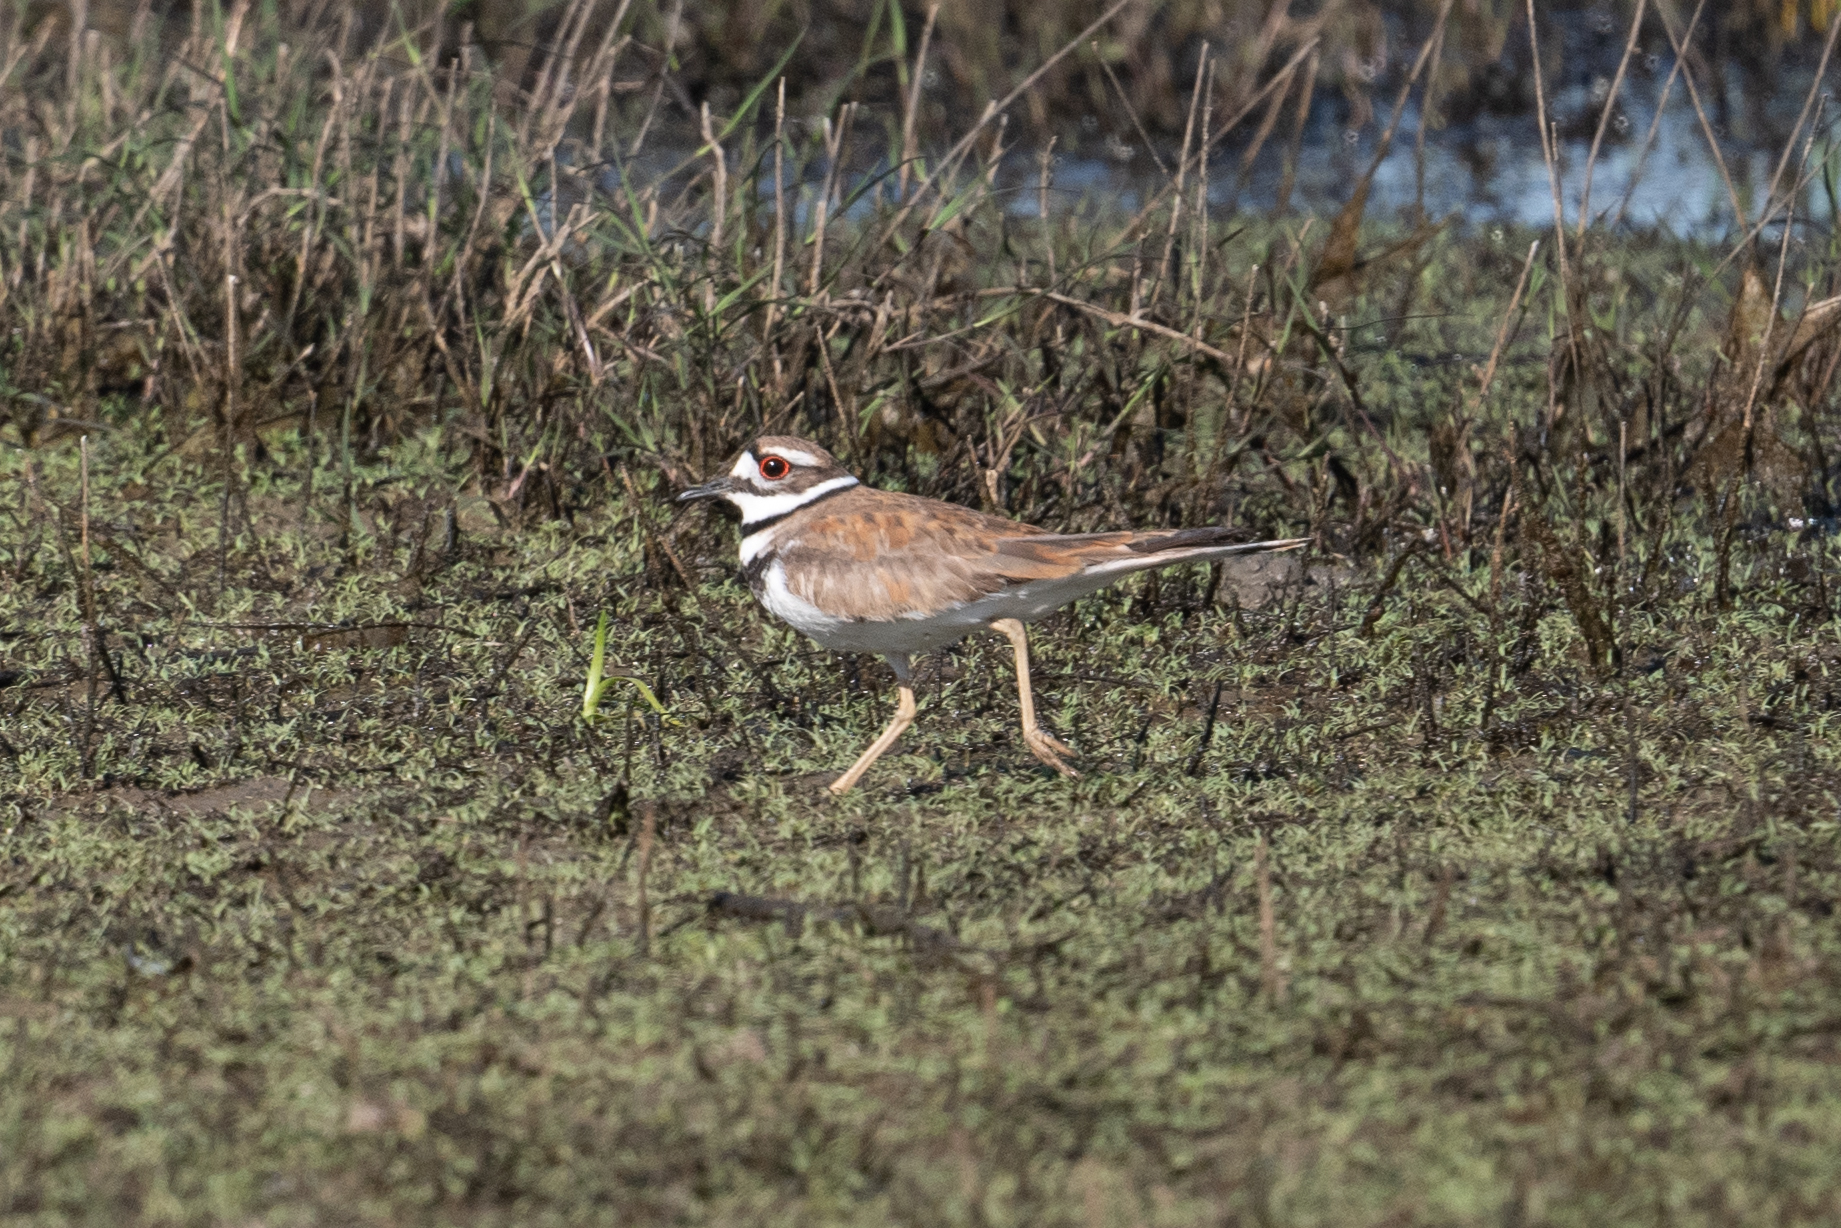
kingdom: Animalia
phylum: Chordata
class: Aves
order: Charadriiformes
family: Charadriidae
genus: Charadrius
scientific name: Charadrius vociferus
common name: Killdeer
